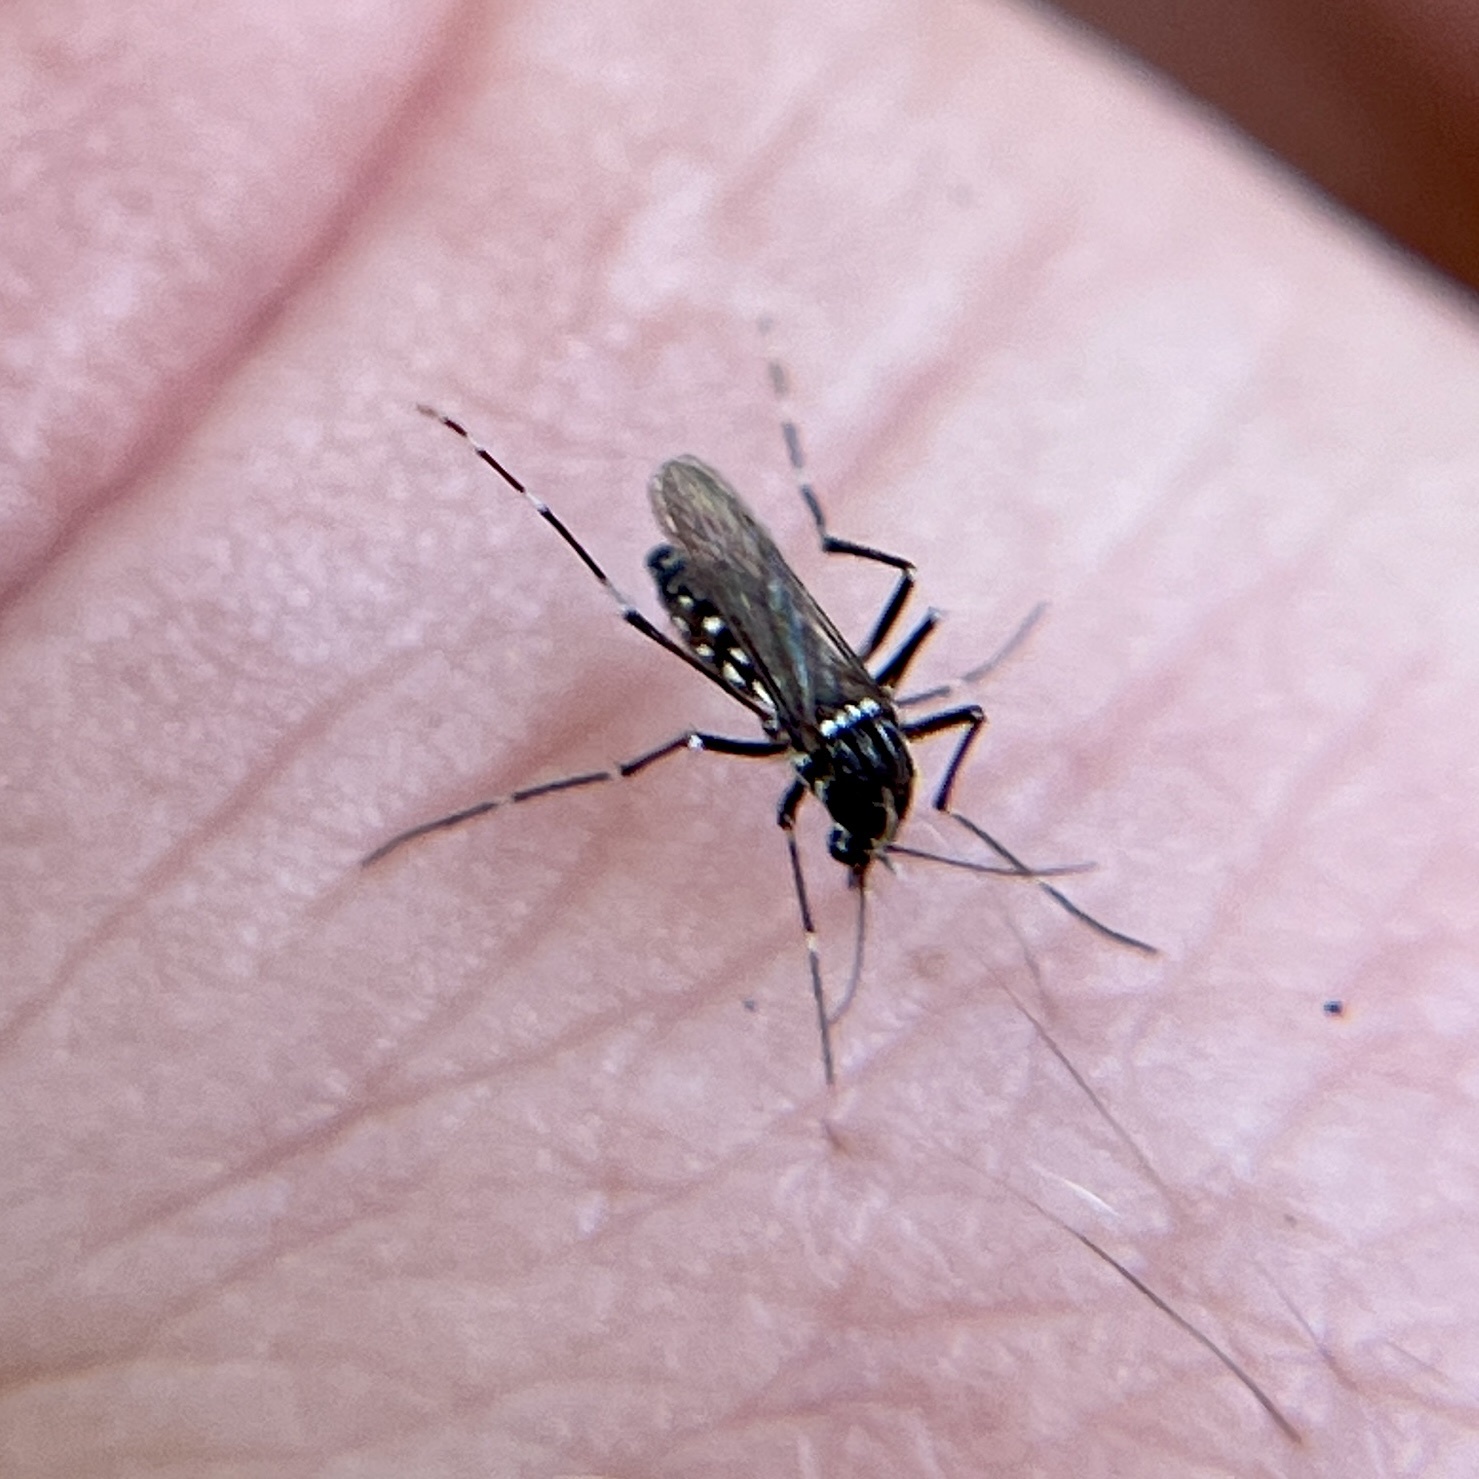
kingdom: Animalia
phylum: Arthropoda
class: Insecta
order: Diptera
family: Culicidae
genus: Aedes
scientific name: Aedes albopictus
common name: Tiger mosquito
